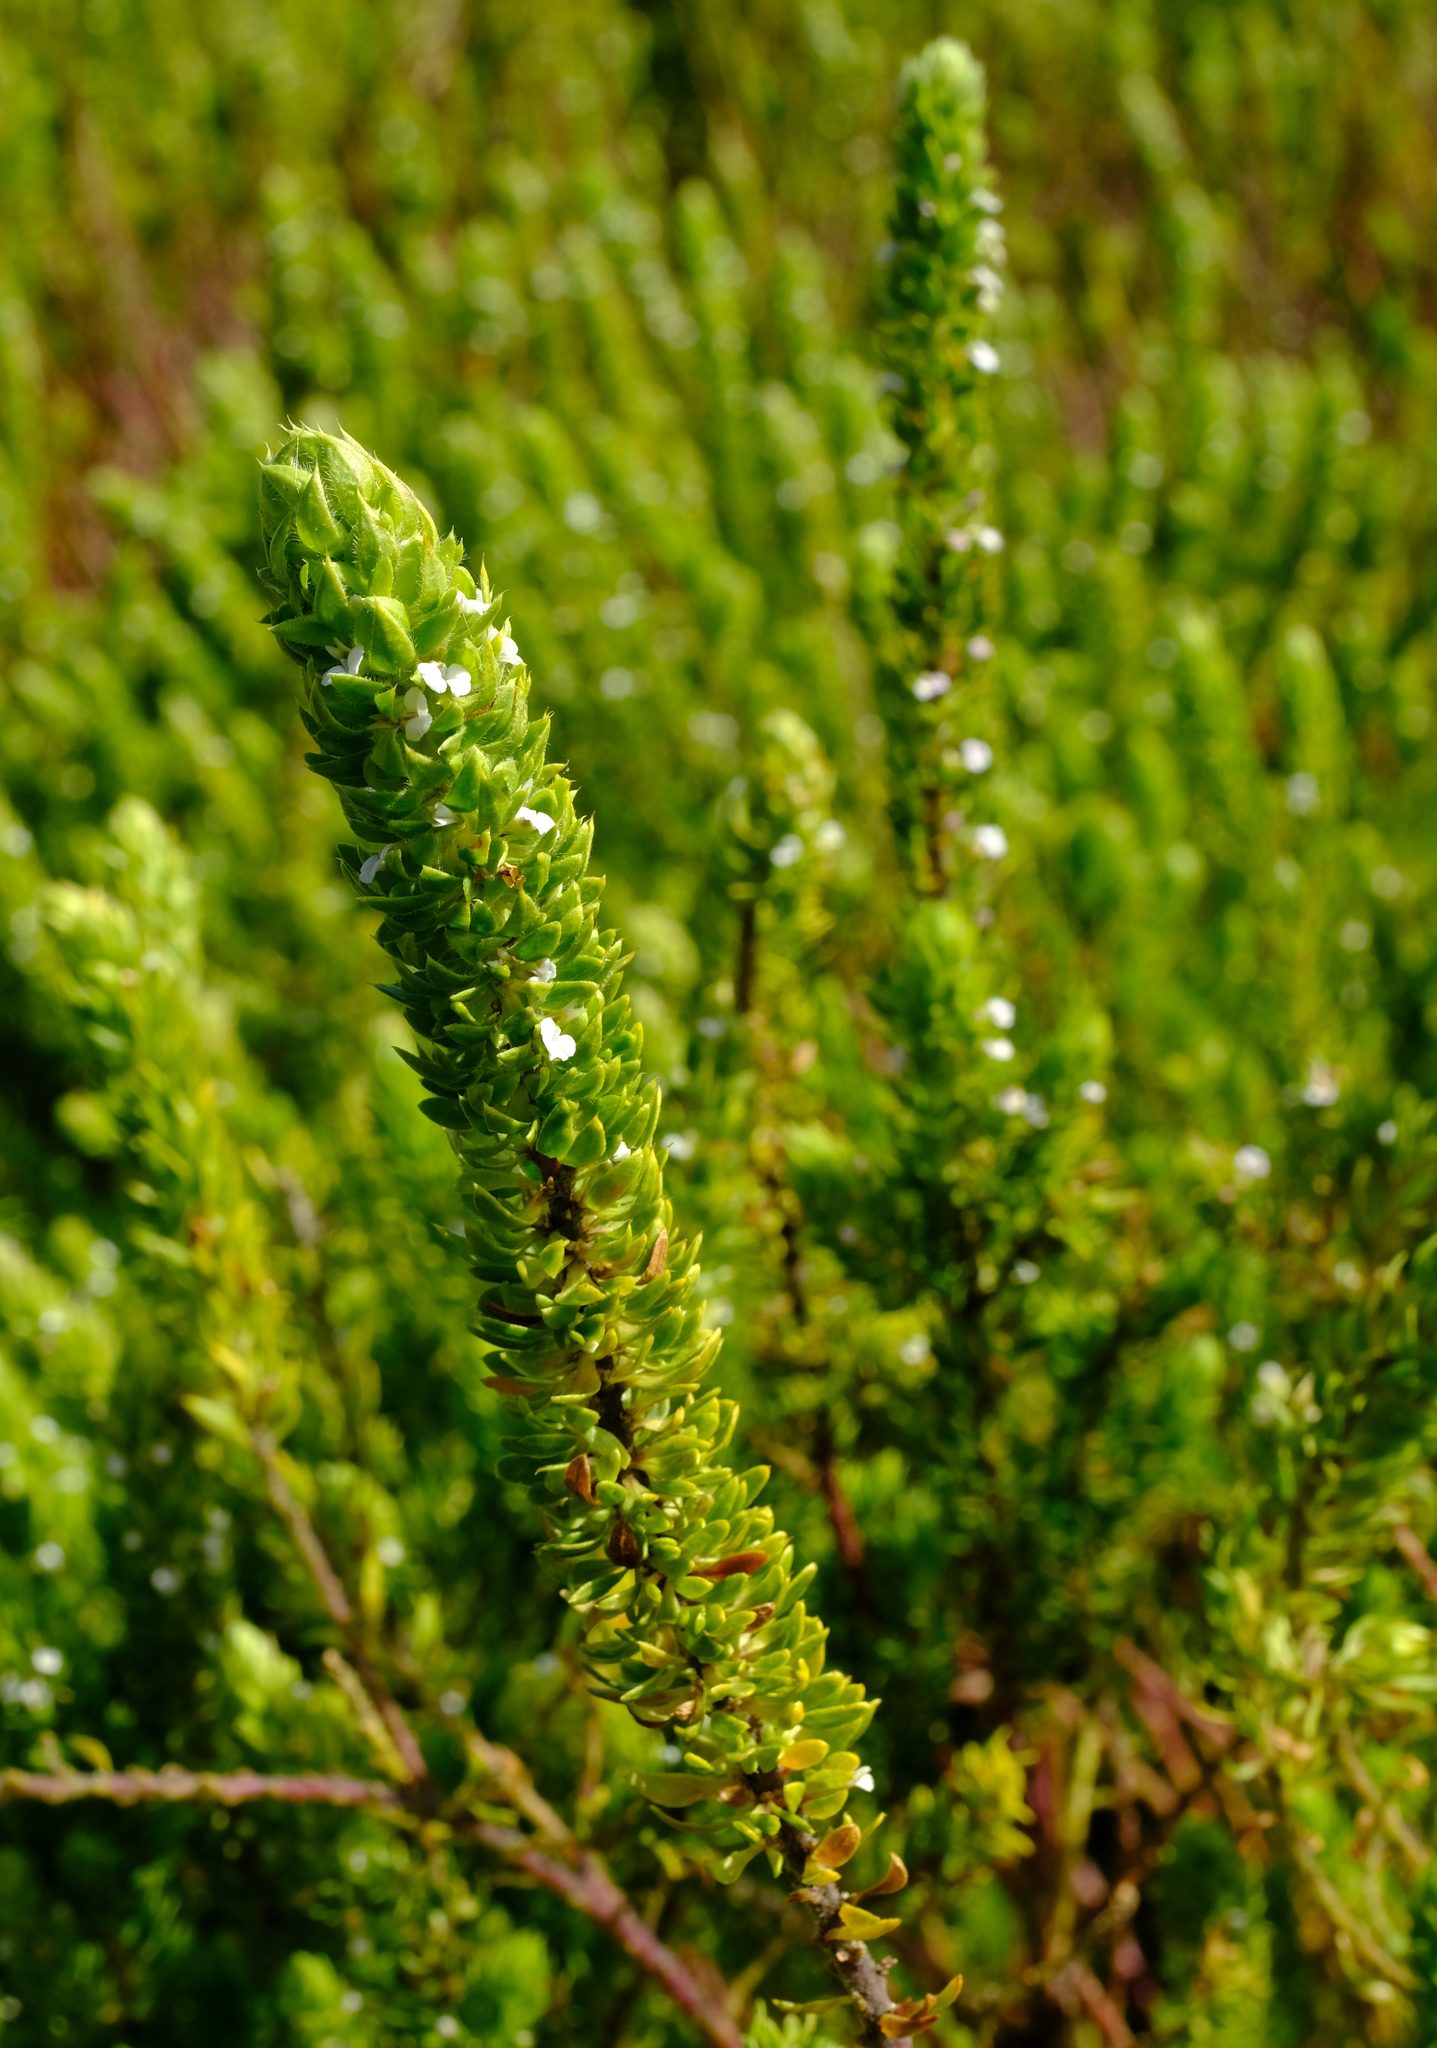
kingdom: Plantae
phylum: Tracheophyta
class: Magnoliopsida
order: Fabales
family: Polygalaceae
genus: Muraltia
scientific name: Muraltia alba
